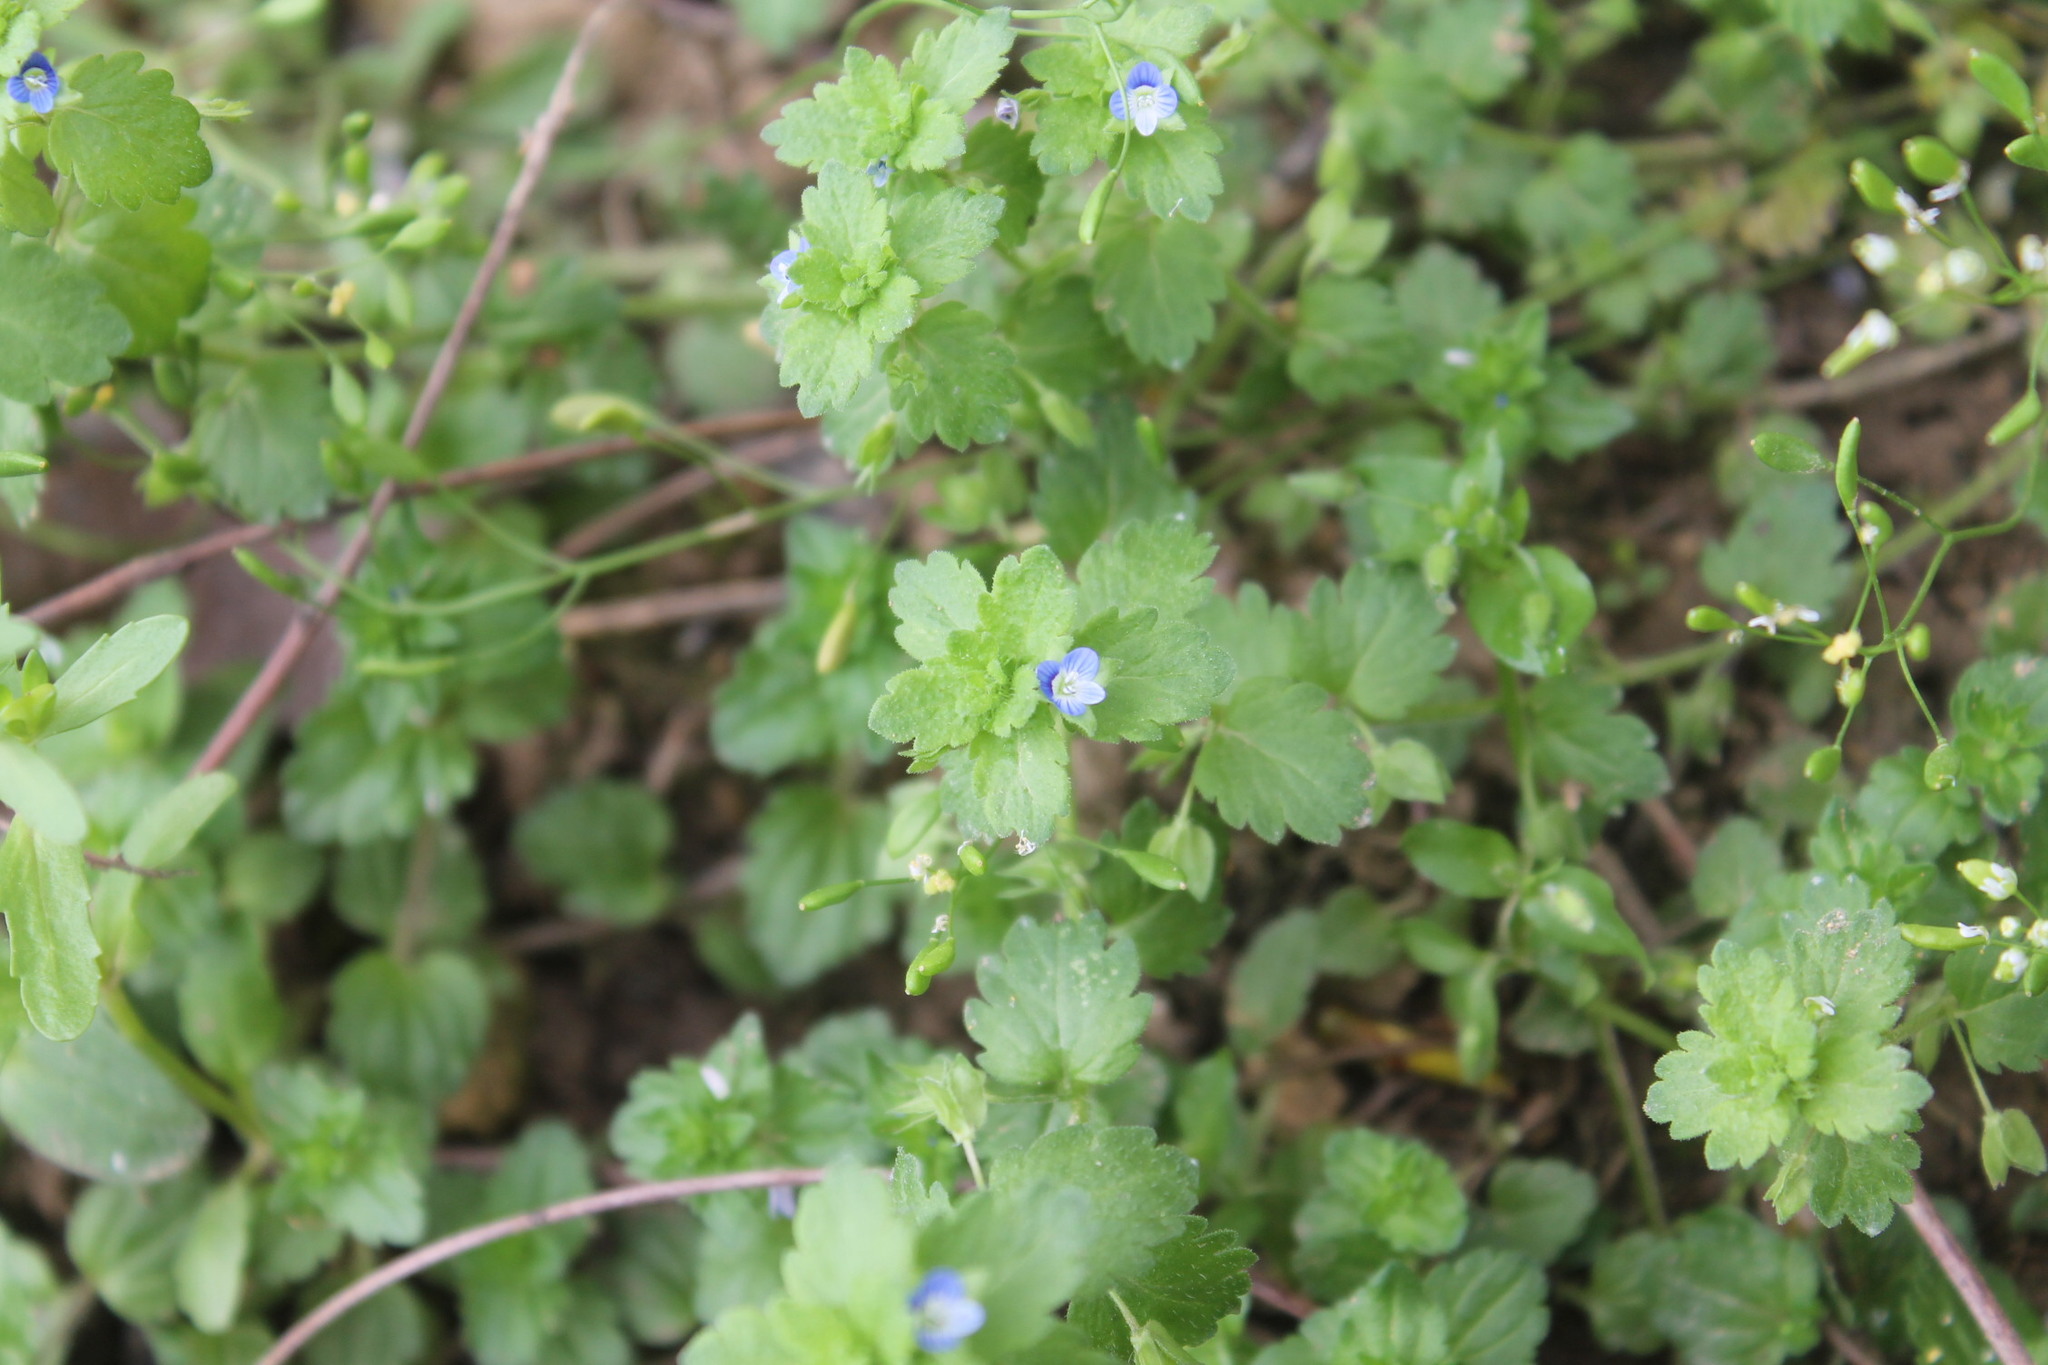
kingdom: Plantae
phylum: Tracheophyta
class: Magnoliopsida
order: Lamiales
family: Plantaginaceae
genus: Veronica
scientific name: Veronica polita
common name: Grey field-speedwell
